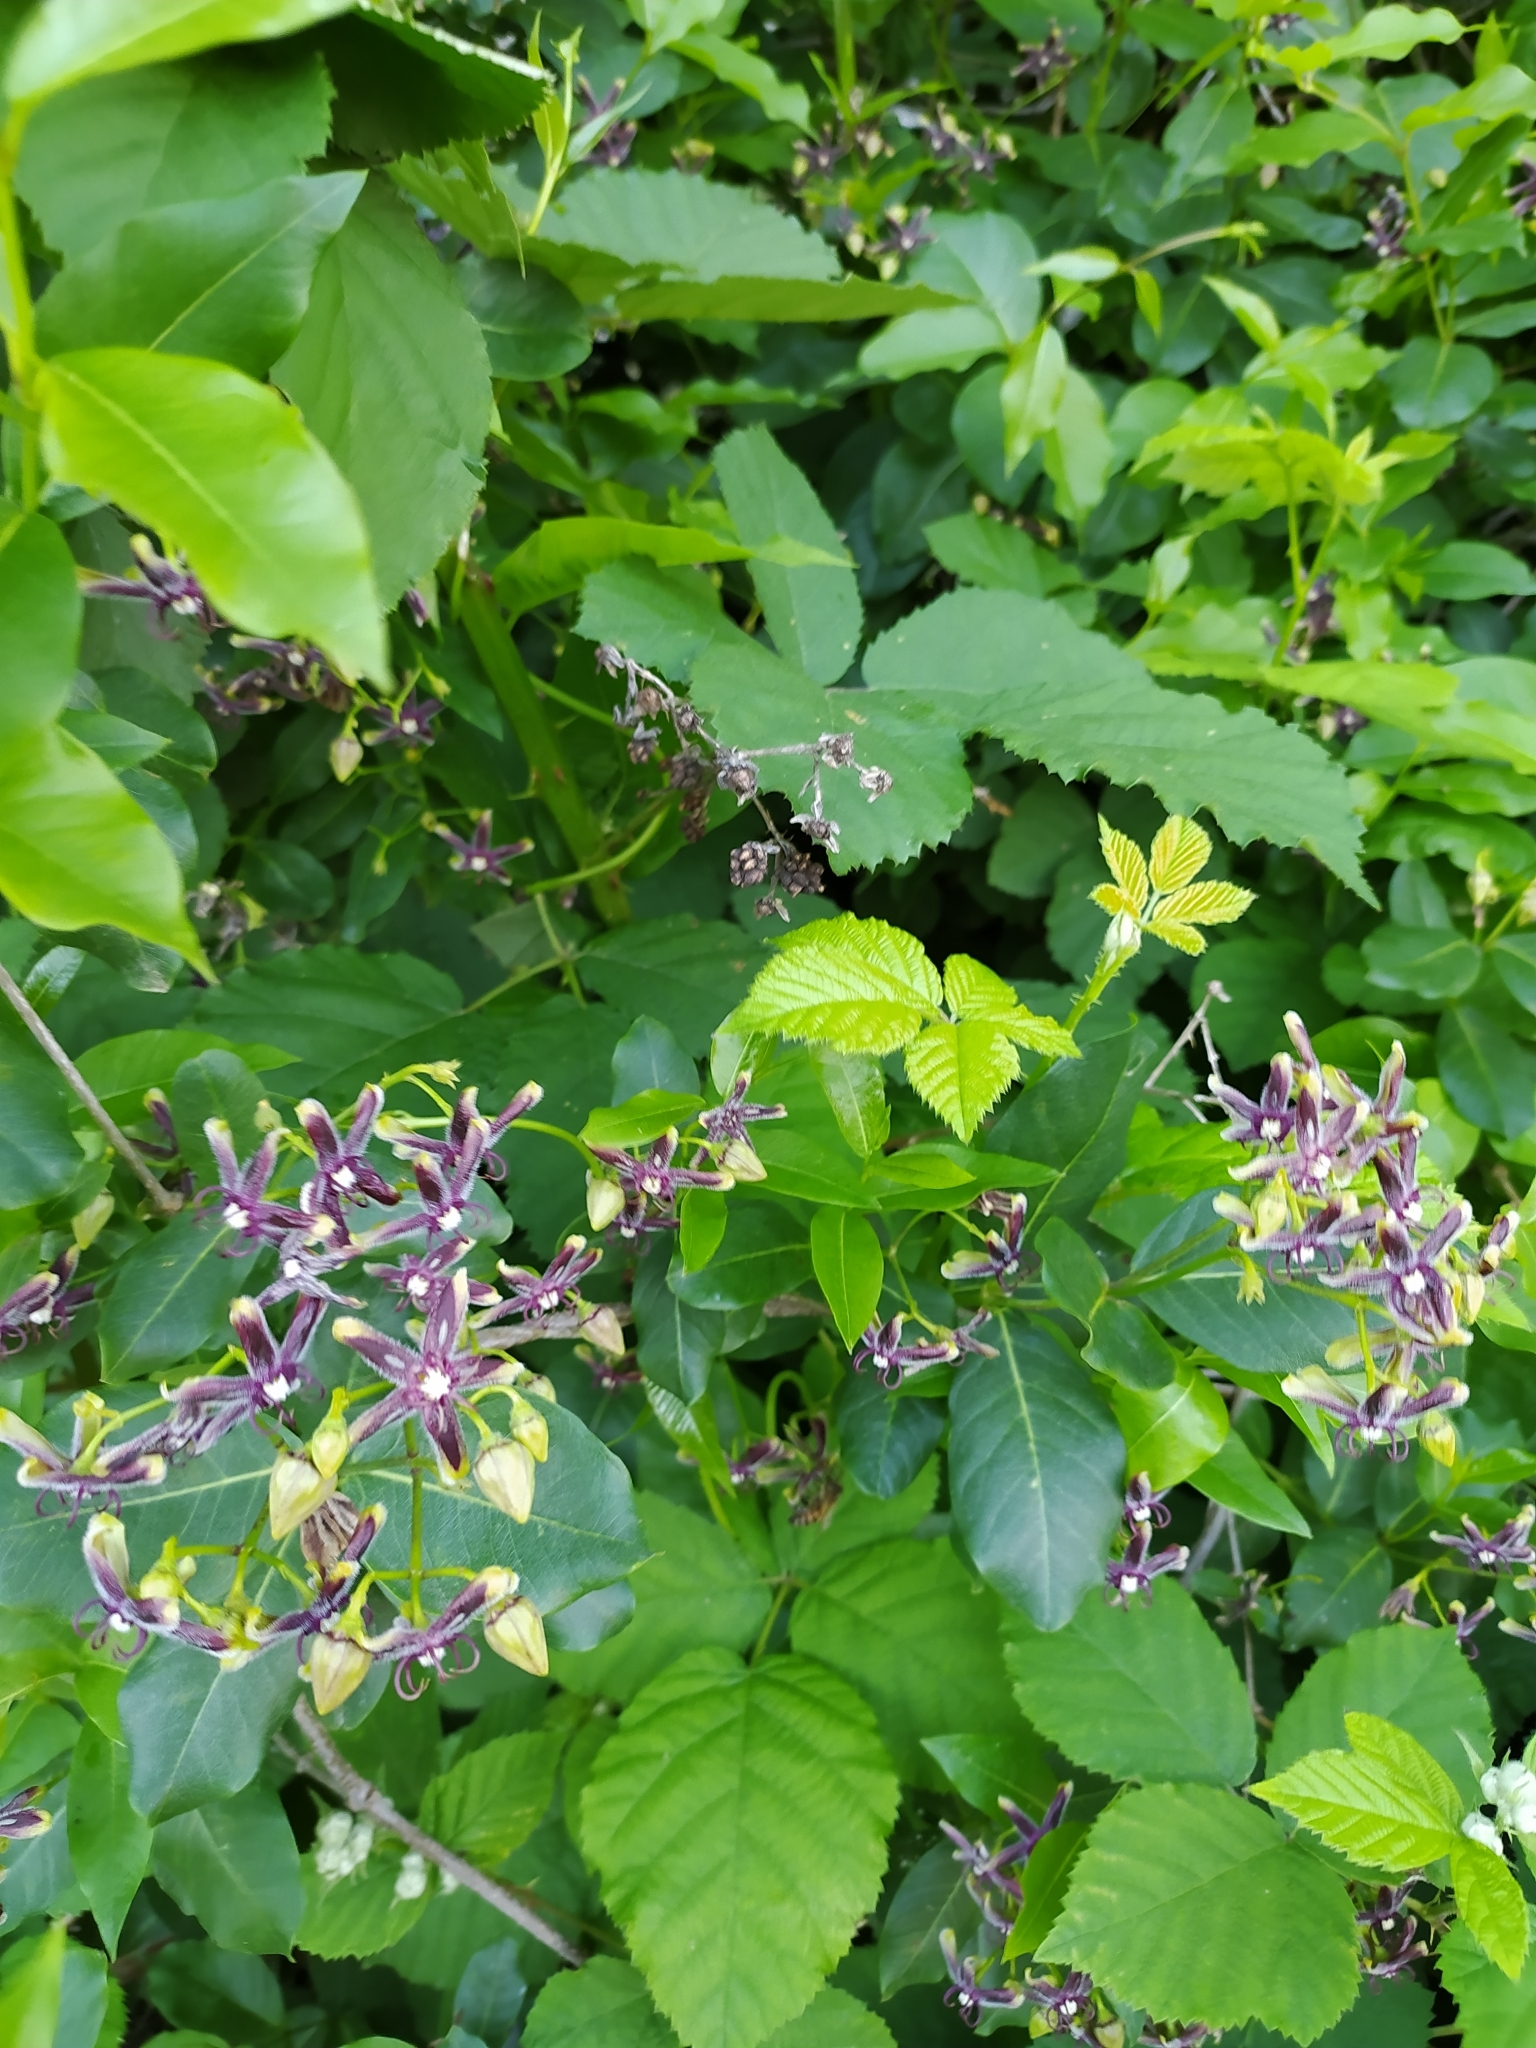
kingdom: Plantae
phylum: Tracheophyta
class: Magnoliopsida
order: Gentianales
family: Apocynaceae
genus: Periploca
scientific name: Periploca graeca
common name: Silkvine
